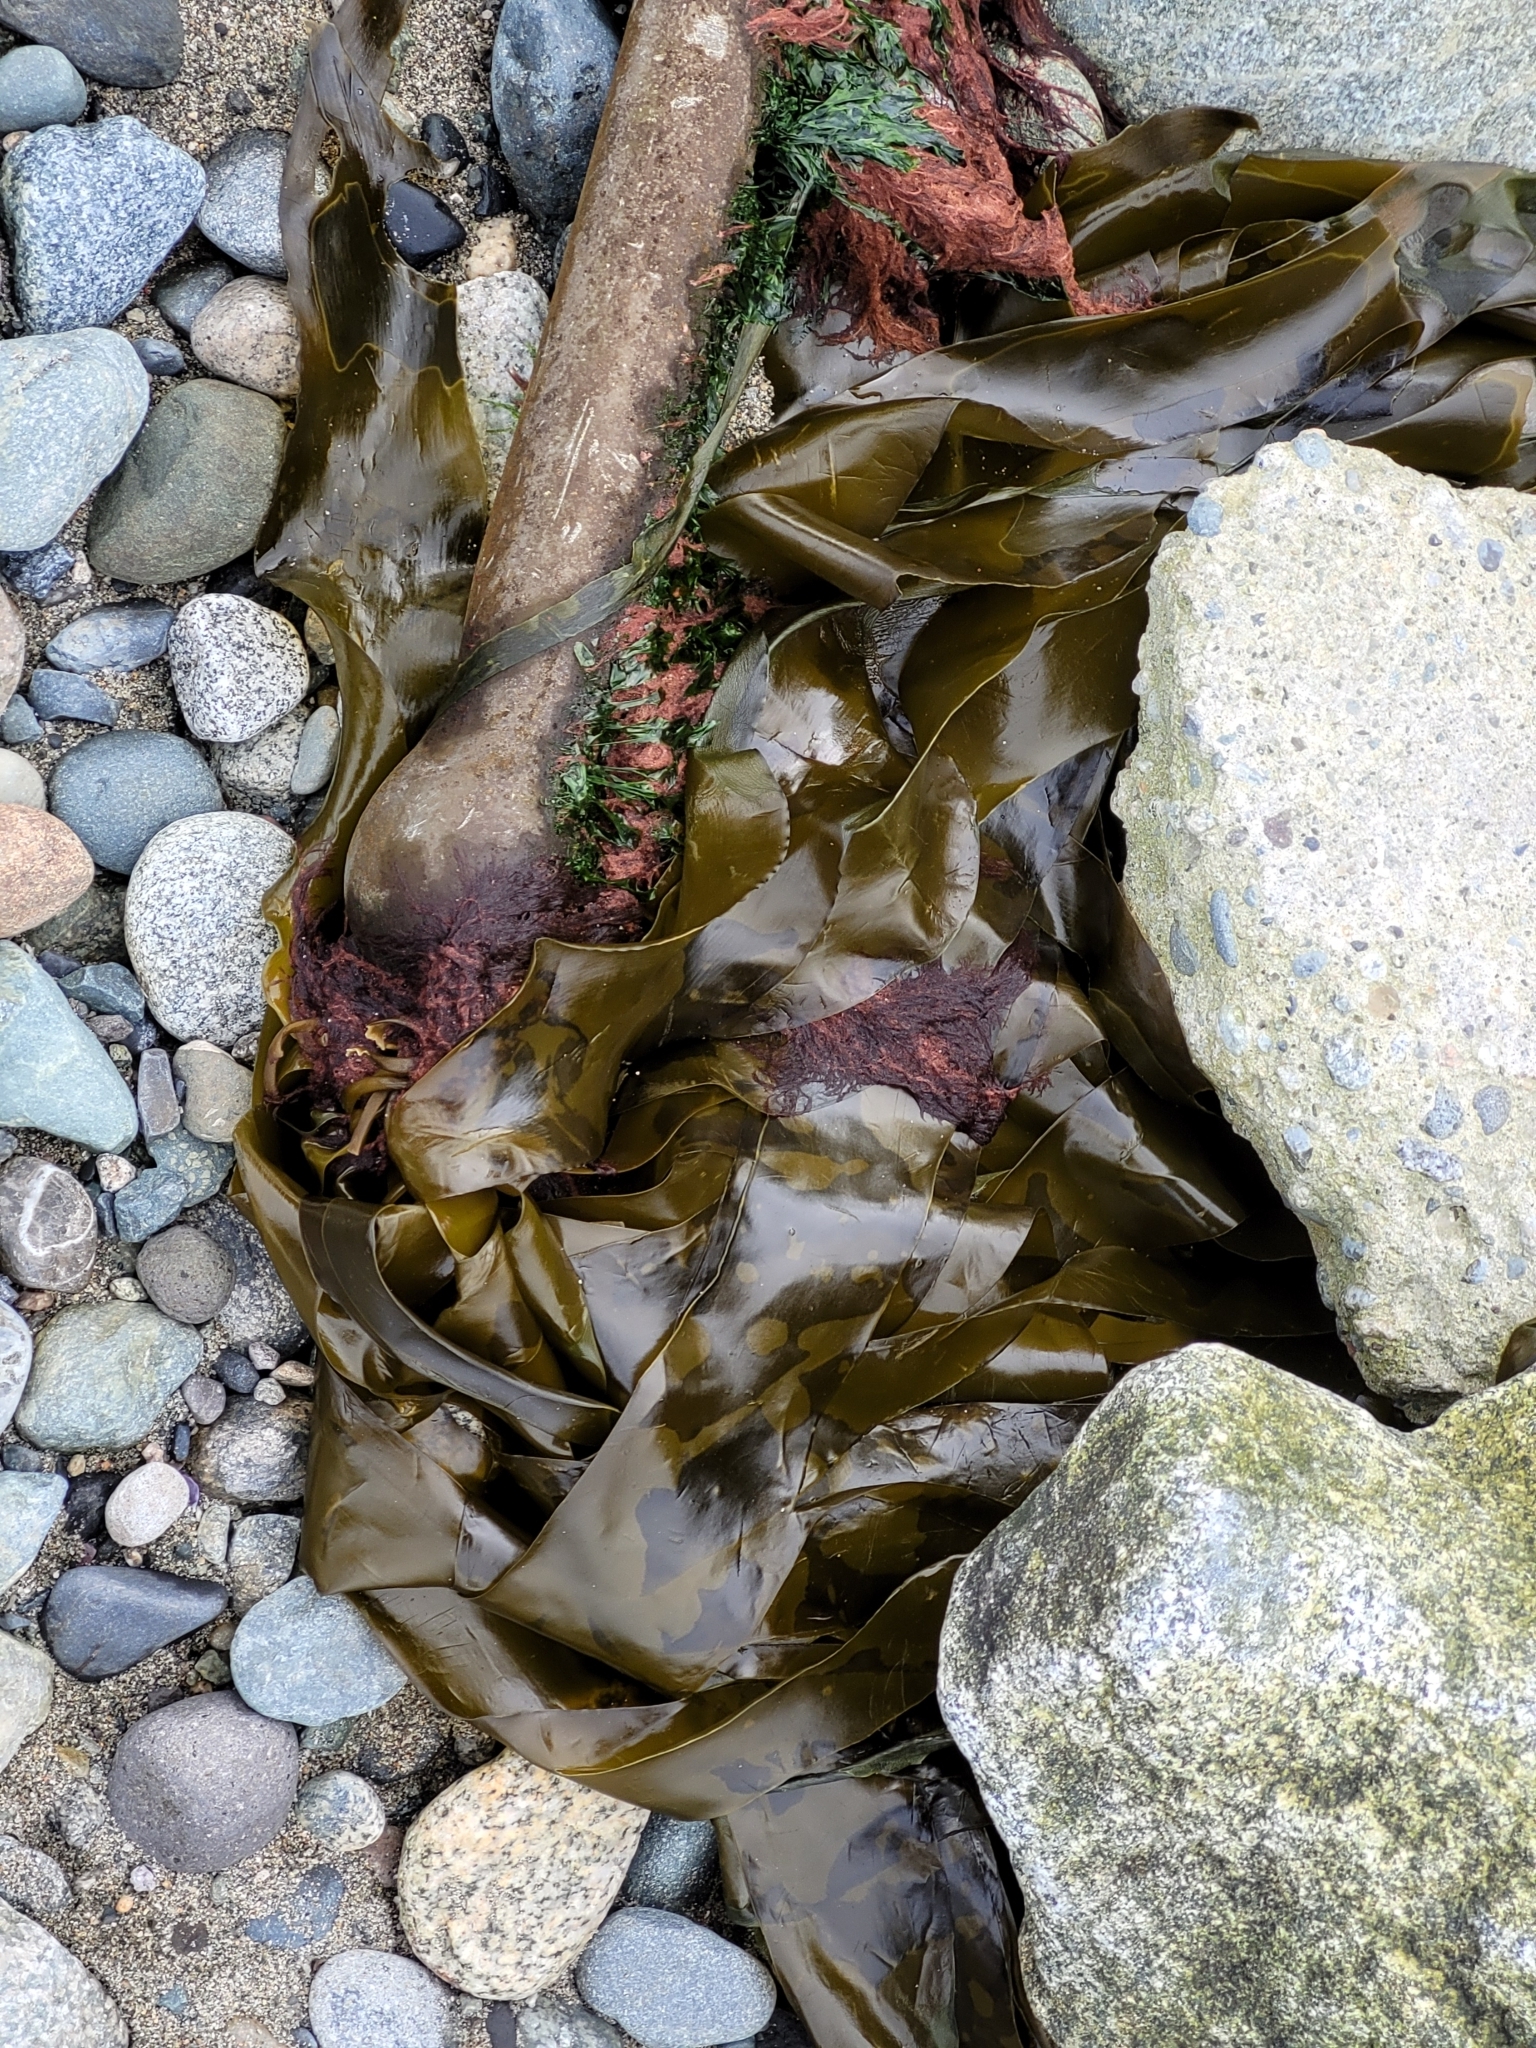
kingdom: Chromista
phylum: Ochrophyta
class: Phaeophyceae
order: Laminariales
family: Laminariaceae
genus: Nereocystis
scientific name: Nereocystis luetkeana
